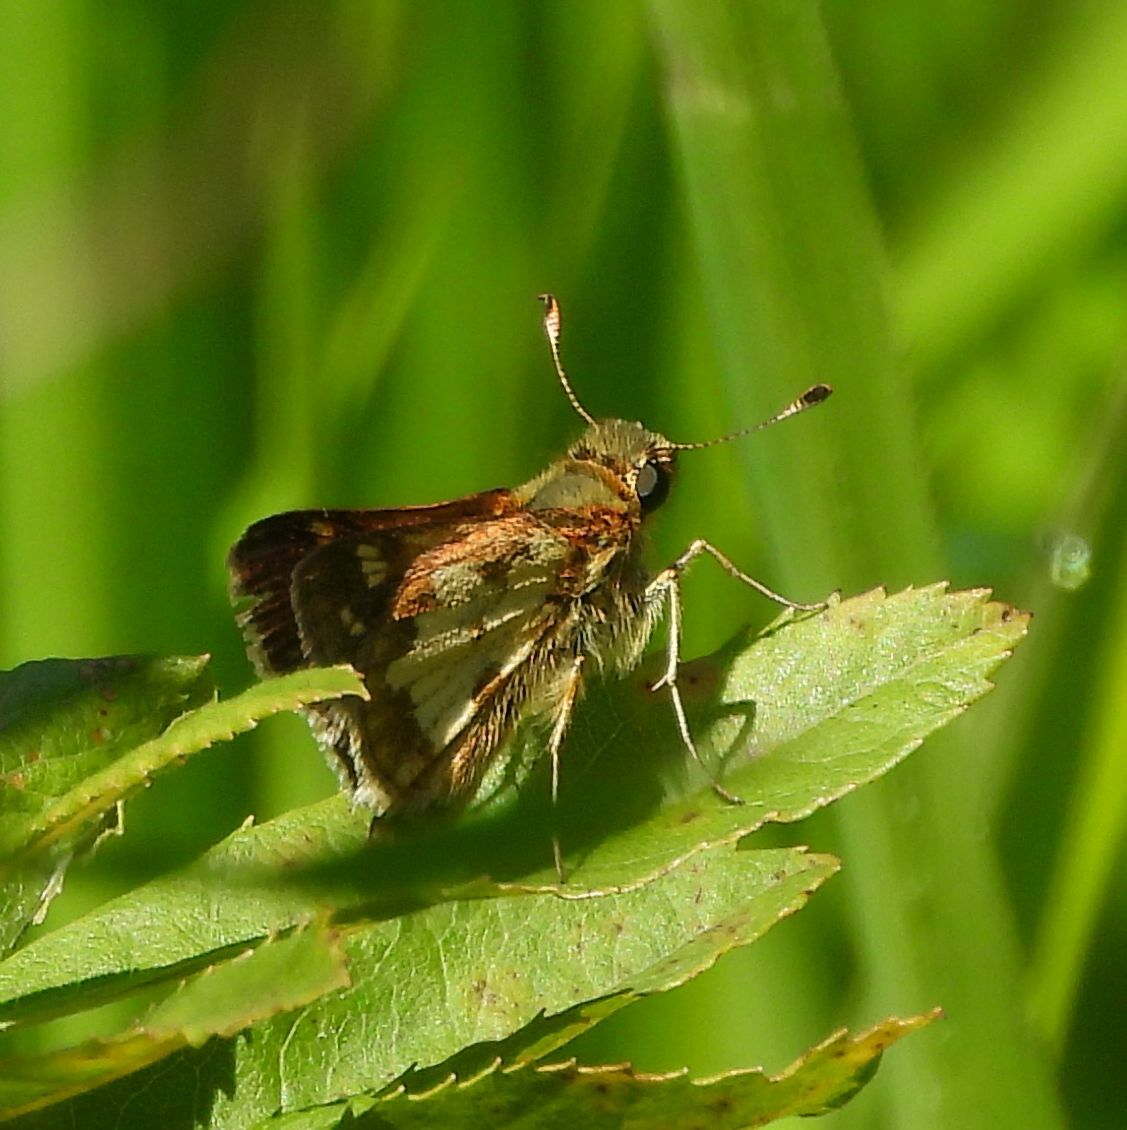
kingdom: Animalia
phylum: Arthropoda
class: Insecta
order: Lepidoptera
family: Hesperiidae
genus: Polites
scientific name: Polites coras
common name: Peck's skipper
